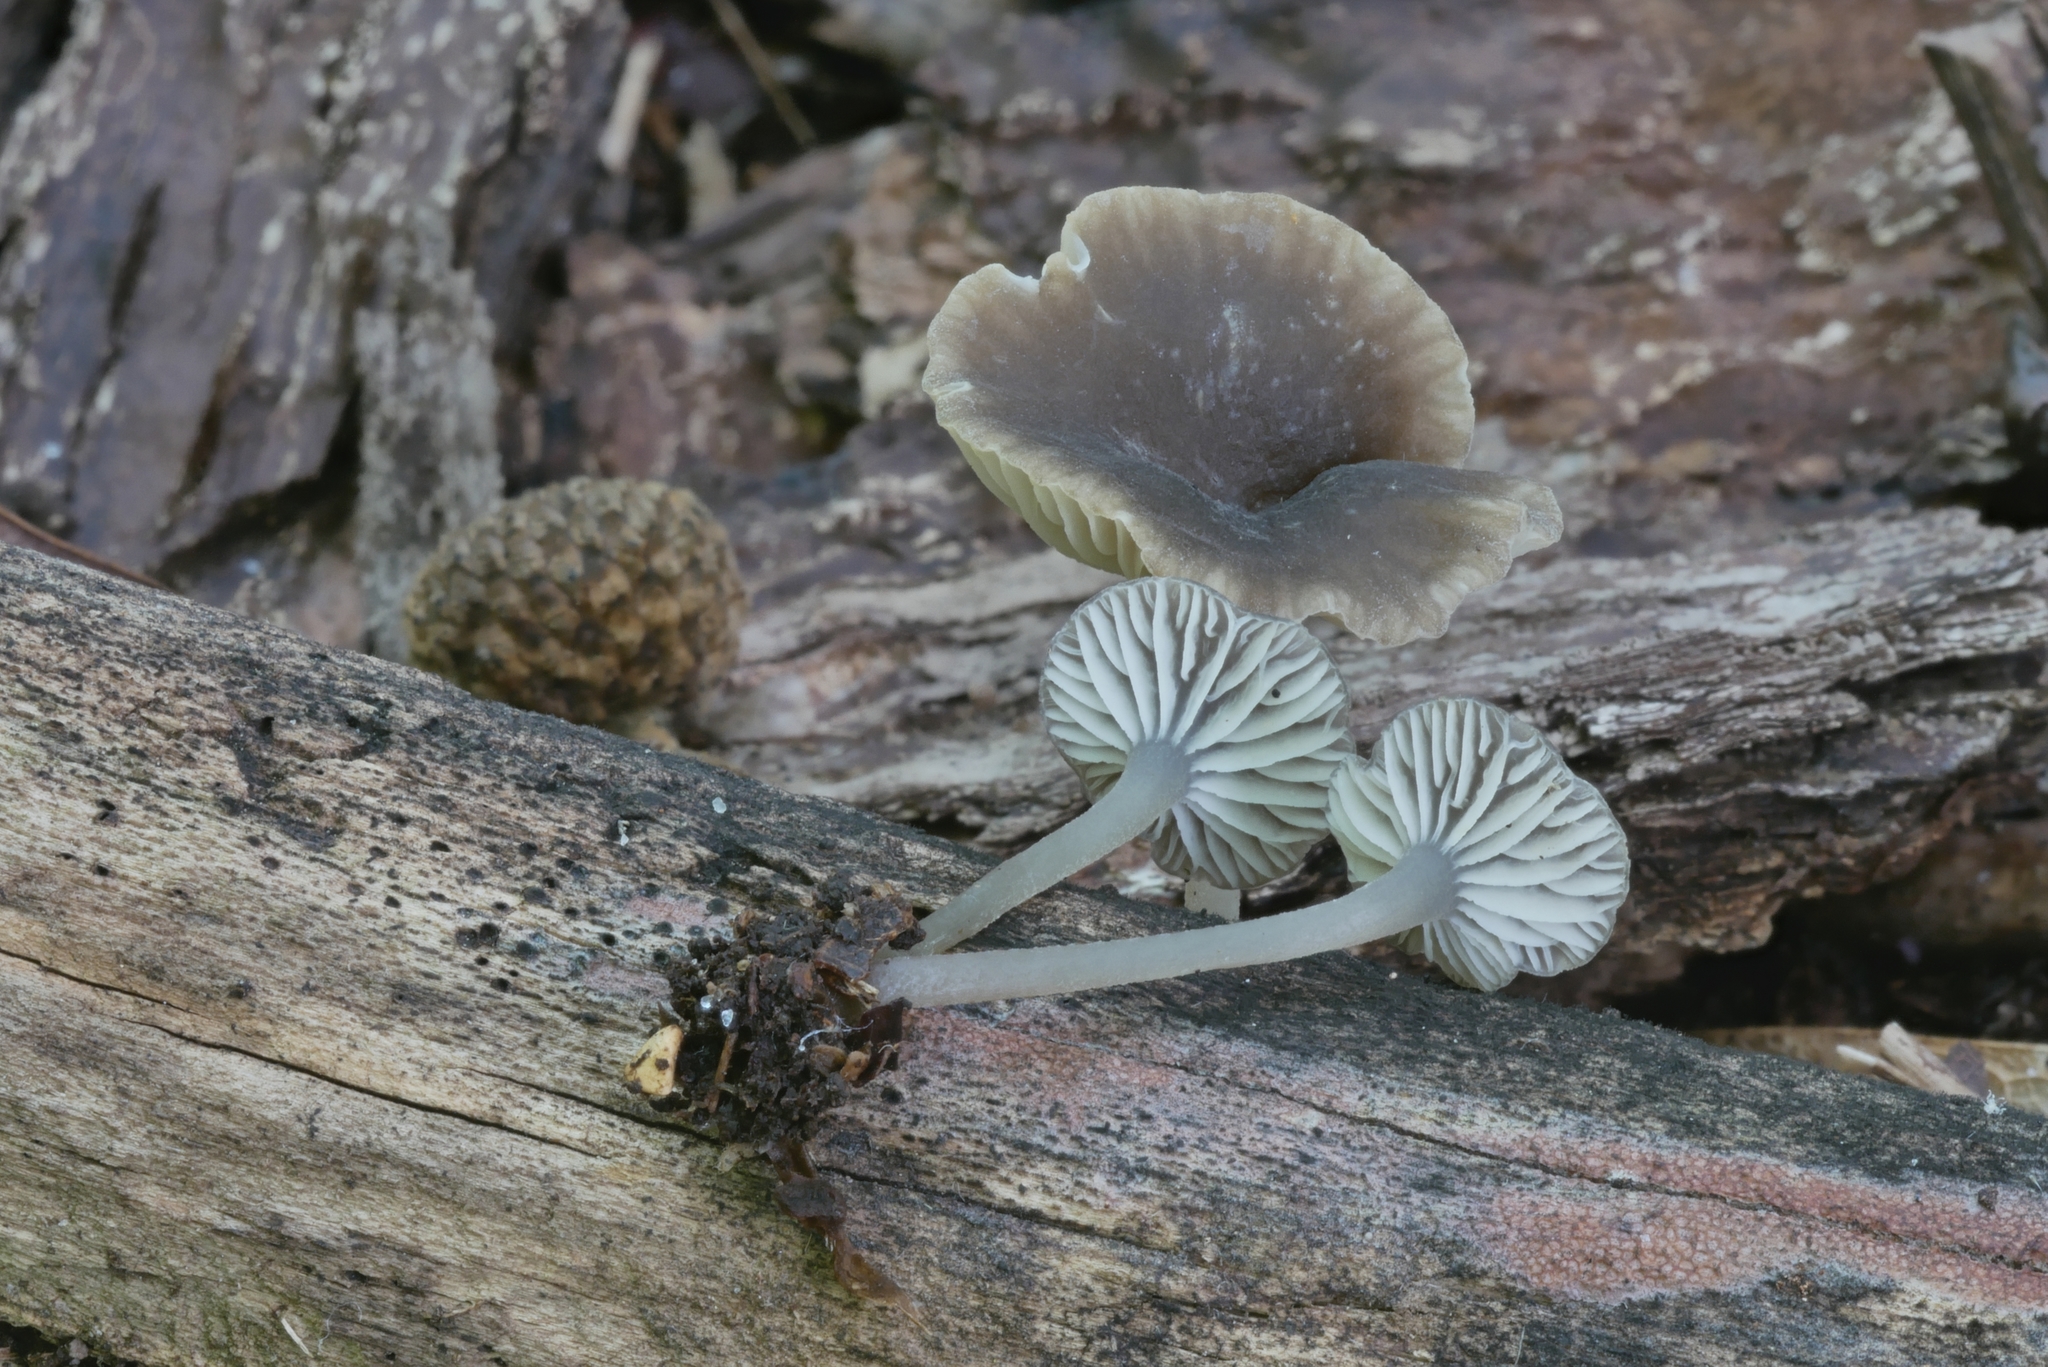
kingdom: Fungi
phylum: Basidiomycota
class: Agaricomycetes
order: Agaricales
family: Mycenaceae
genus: Hydropus
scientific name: Hydropus praedecurrens
